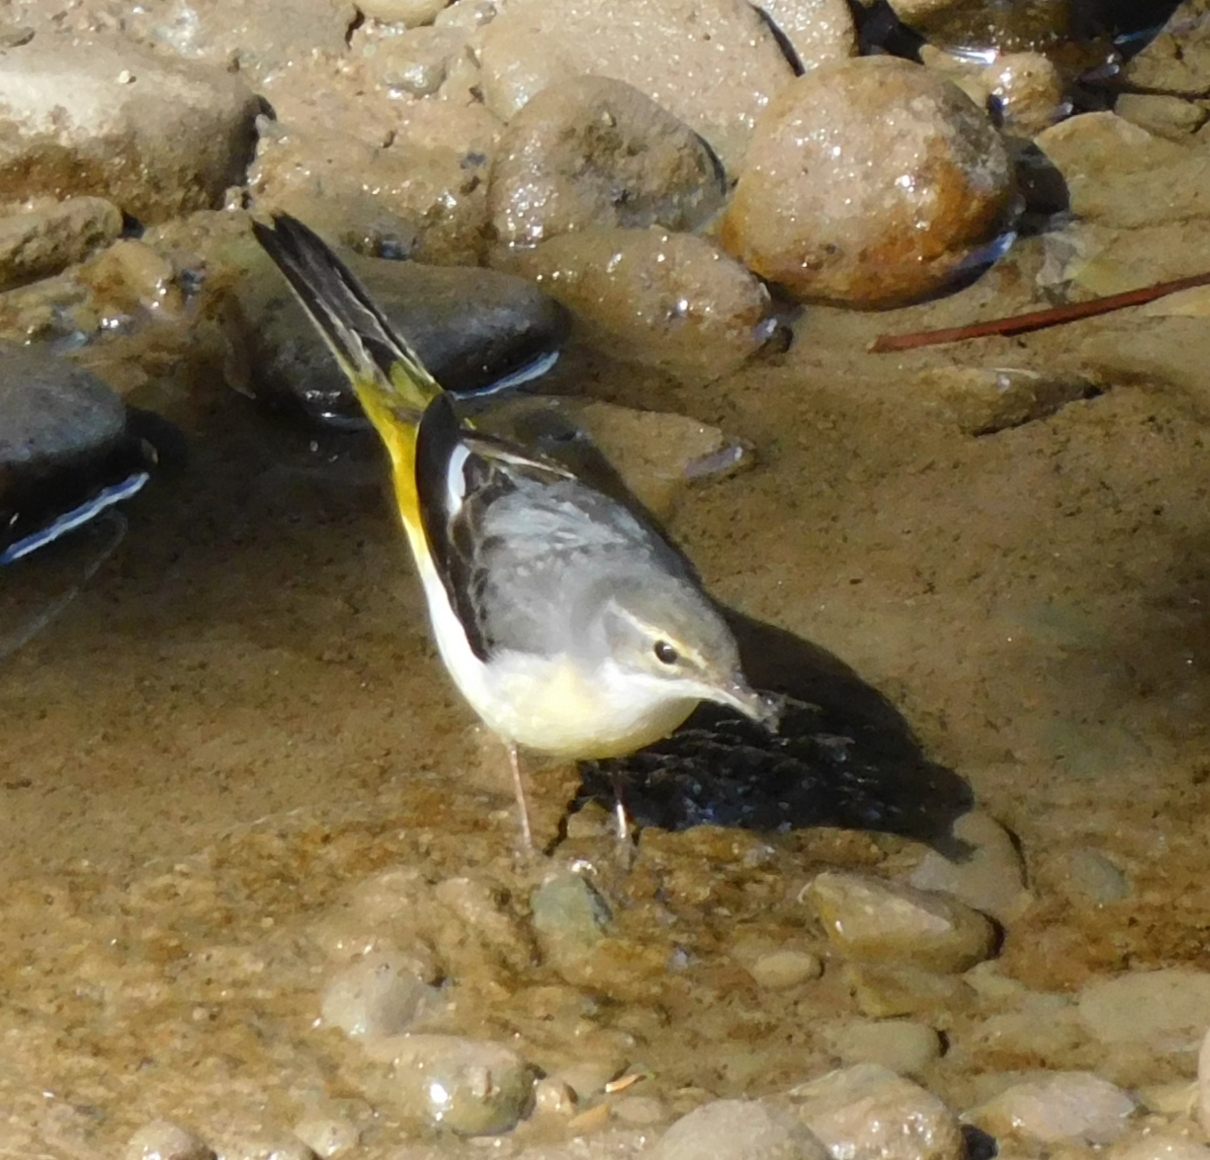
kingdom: Animalia
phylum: Chordata
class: Aves
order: Passeriformes
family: Motacillidae
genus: Motacilla
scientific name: Motacilla cinerea
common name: Grey wagtail
